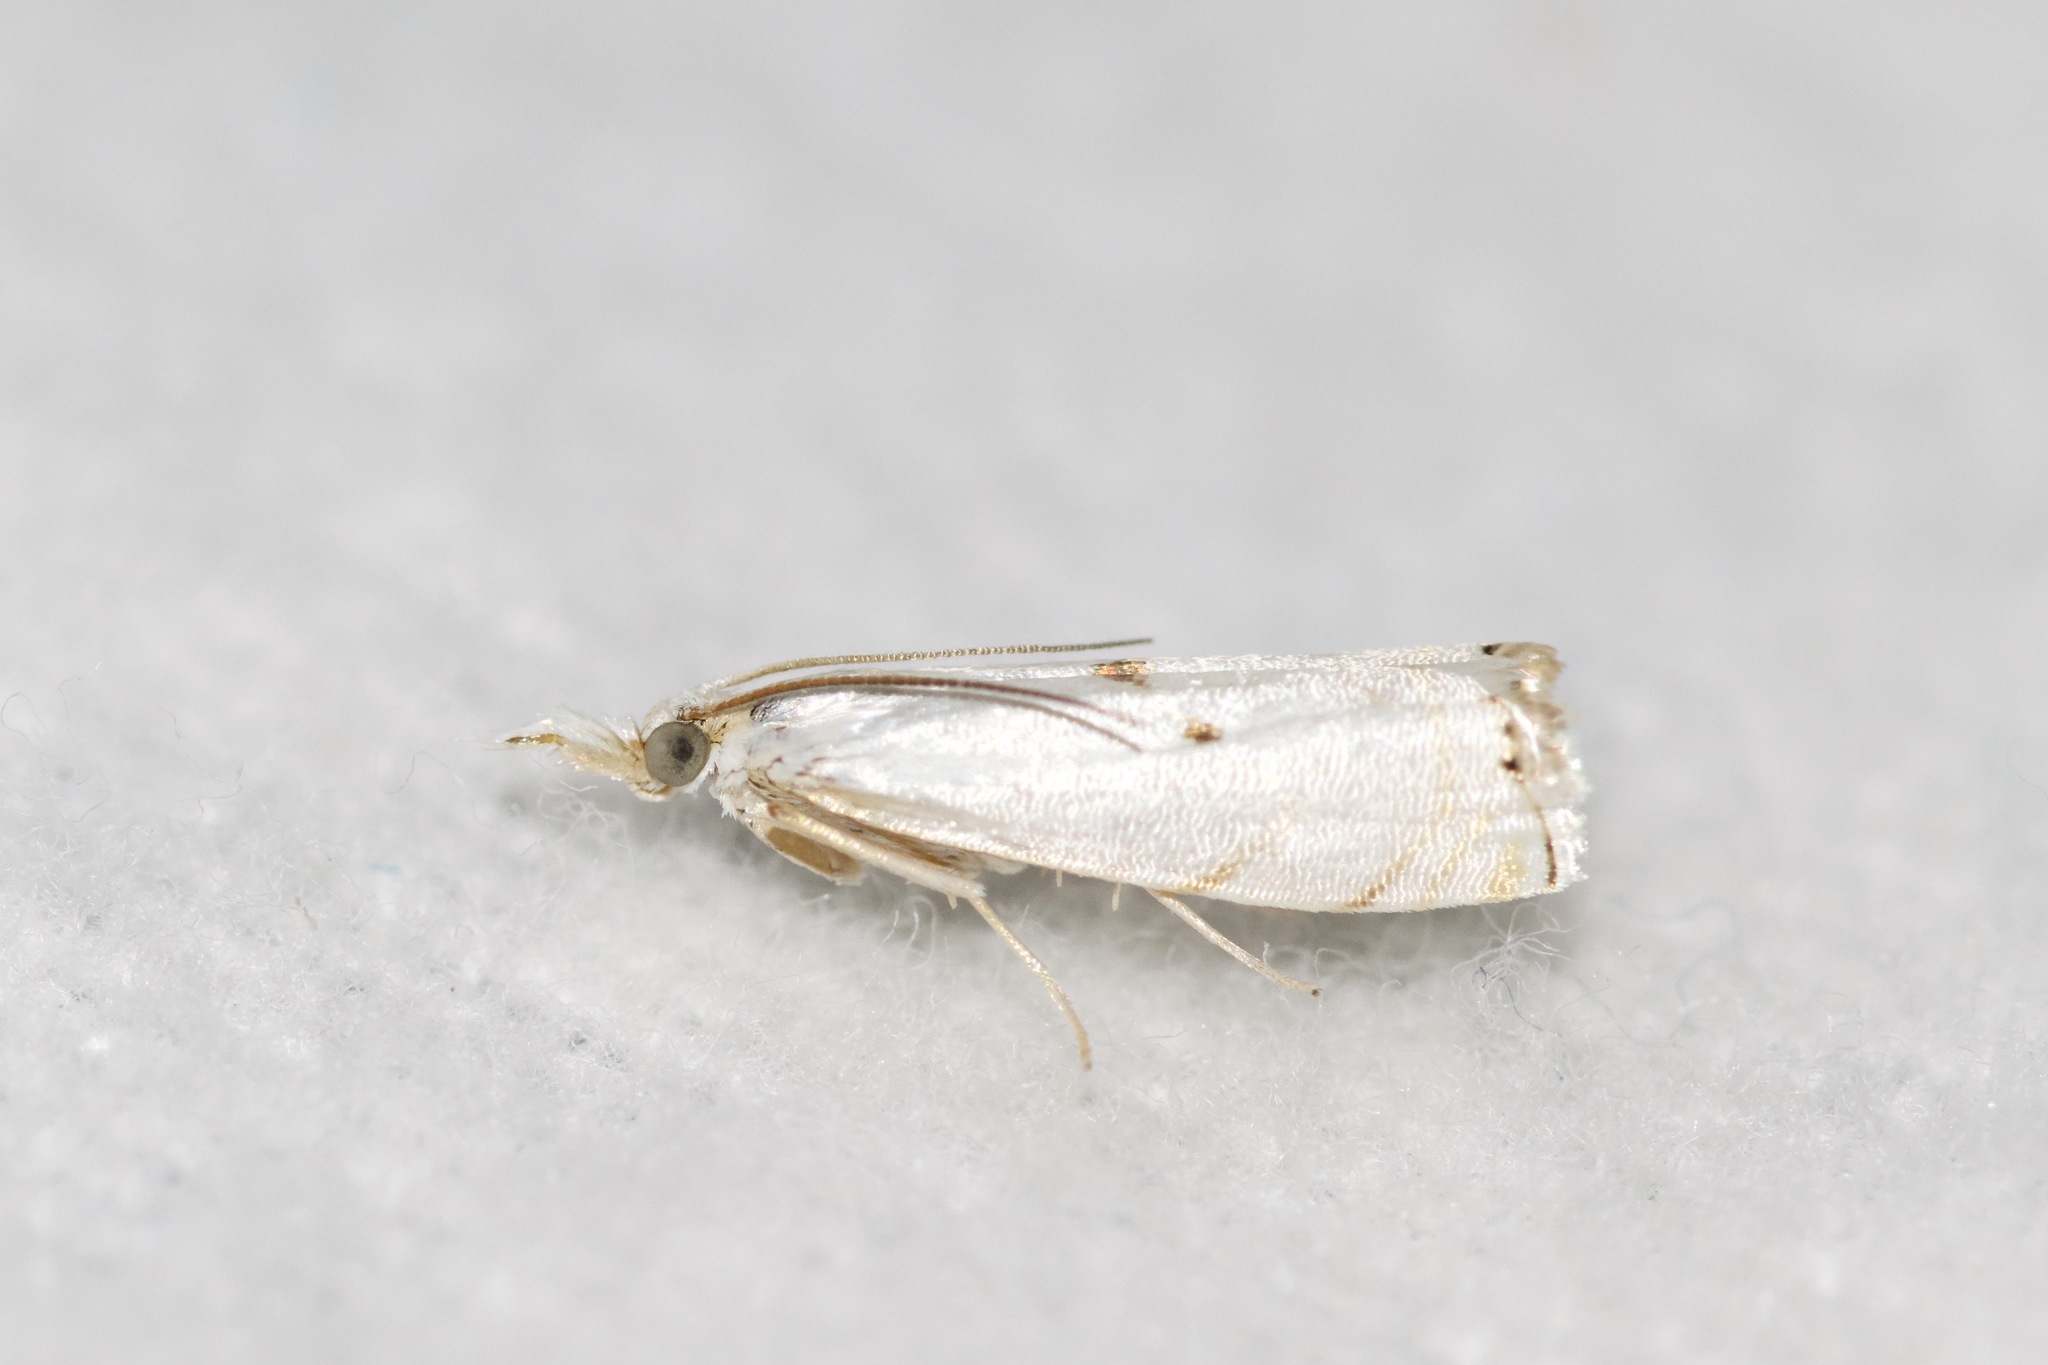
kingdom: Animalia
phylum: Arthropoda
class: Insecta
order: Lepidoptera
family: Crambidae
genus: Microcrambus
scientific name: Microcrambus biguttellus
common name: Gold-stripe grass-veneer moth
